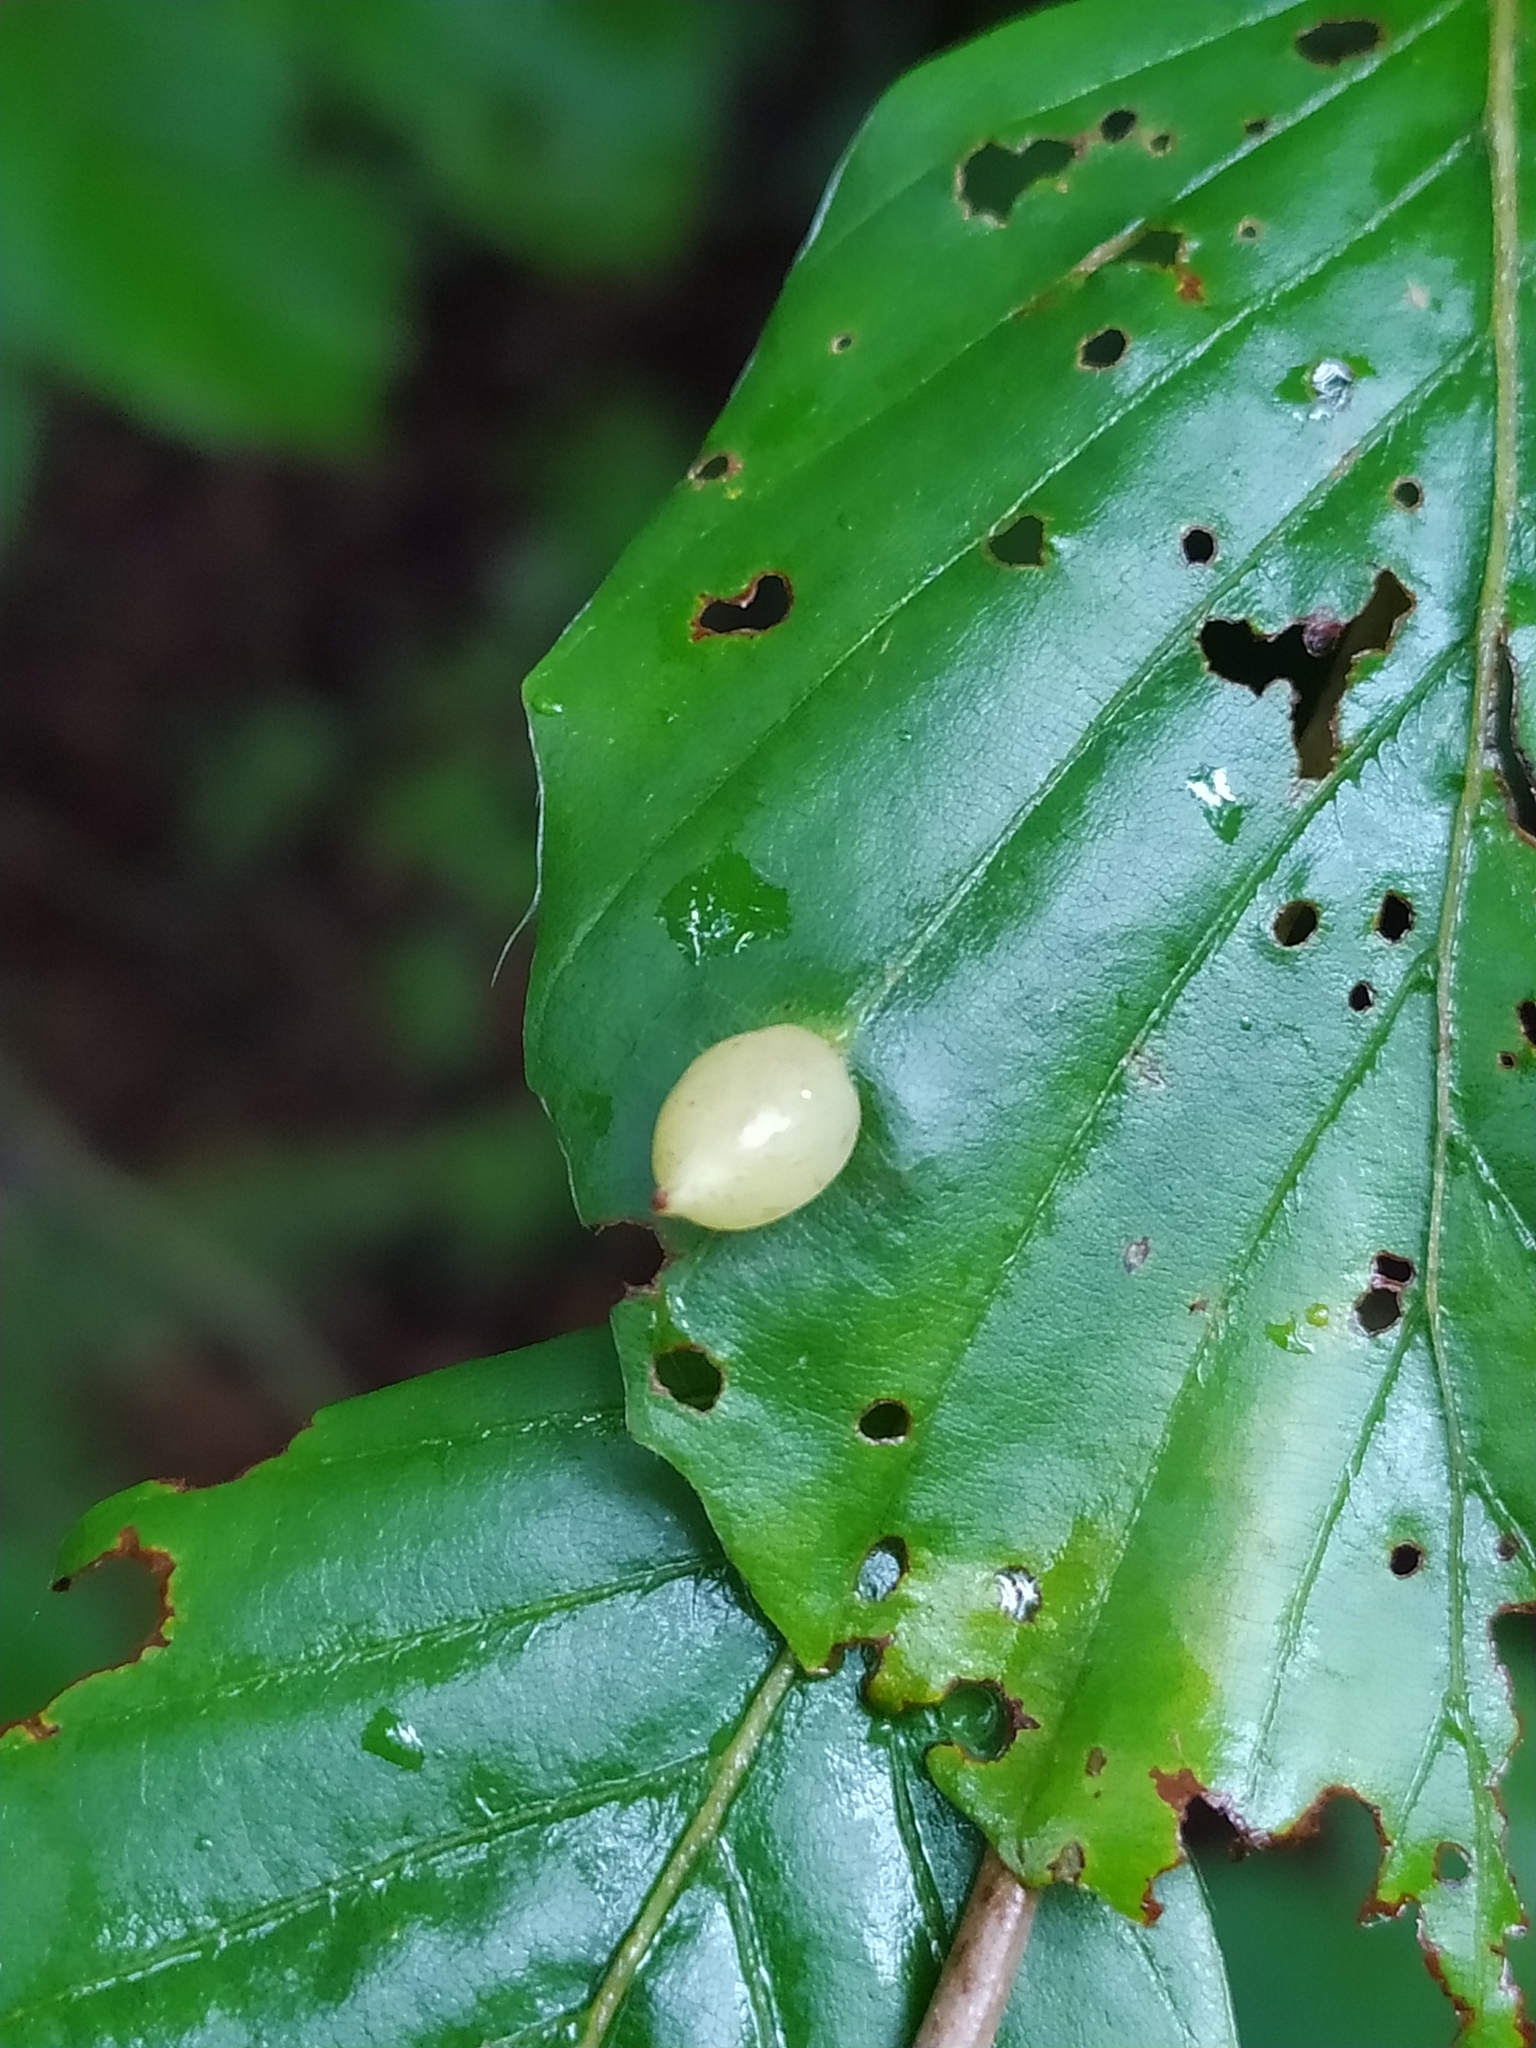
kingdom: Animalia
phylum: Arthropoda
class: Insecta
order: Diptera
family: Cecidomyiidae
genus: Mikiola
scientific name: Mikiola fagi
